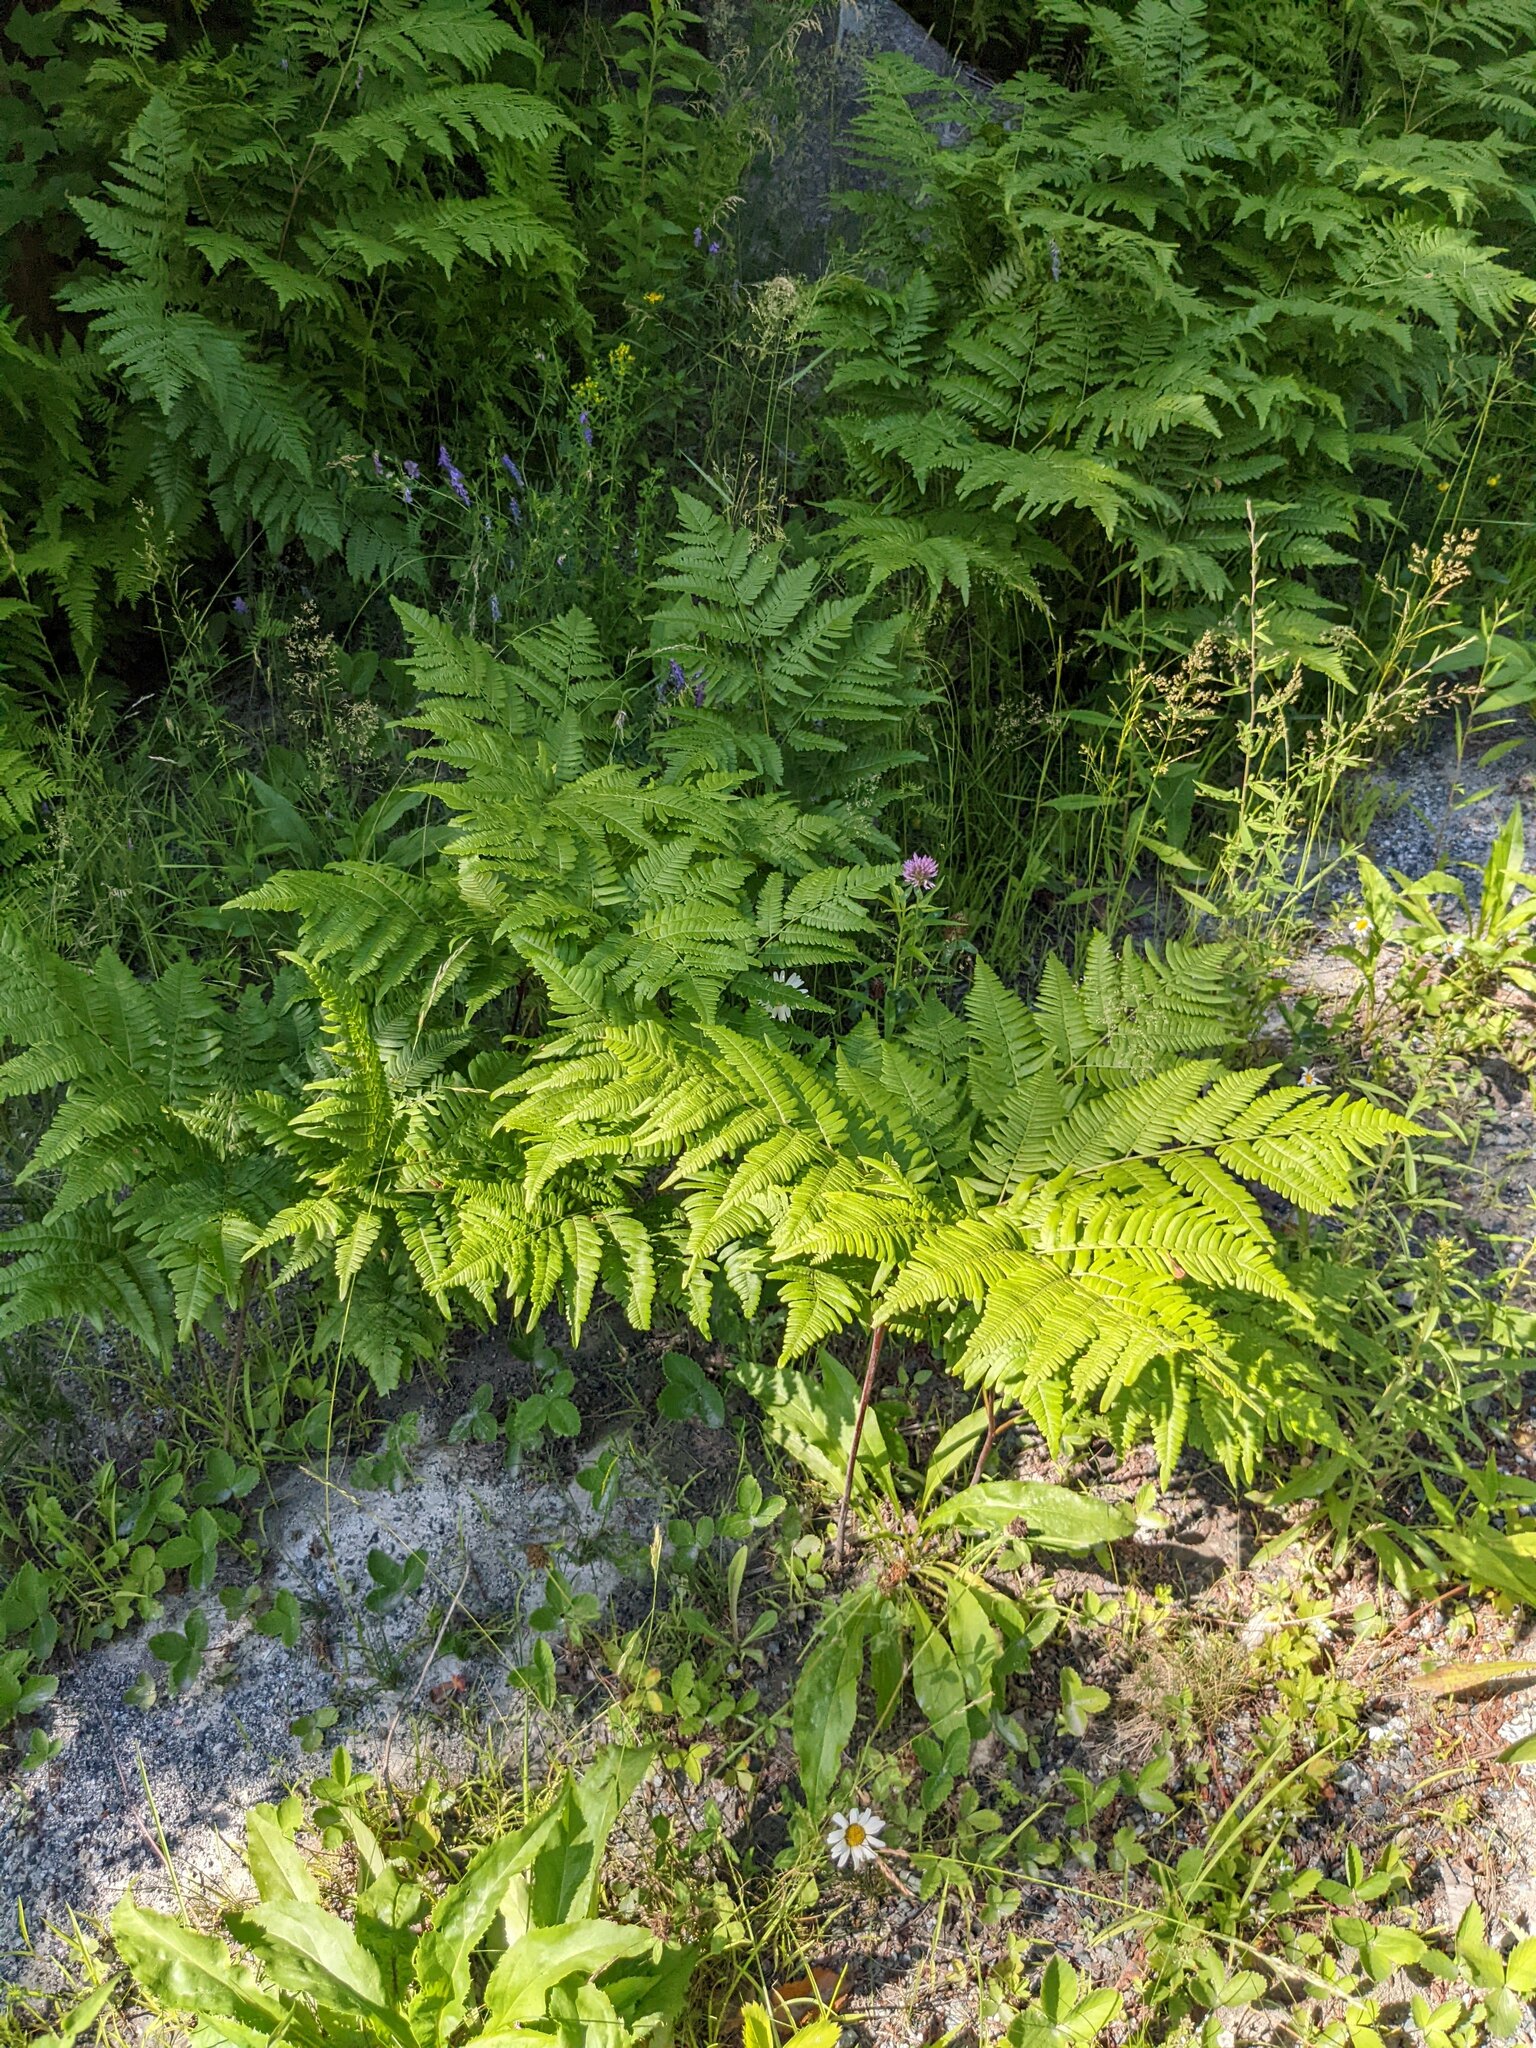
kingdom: Plantae
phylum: Tracheophyta
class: Polypodiopsida
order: Polypodiales
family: Dennstaedtiaceae
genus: Pteridium
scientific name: Pteridium aquilinum
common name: Bracken
